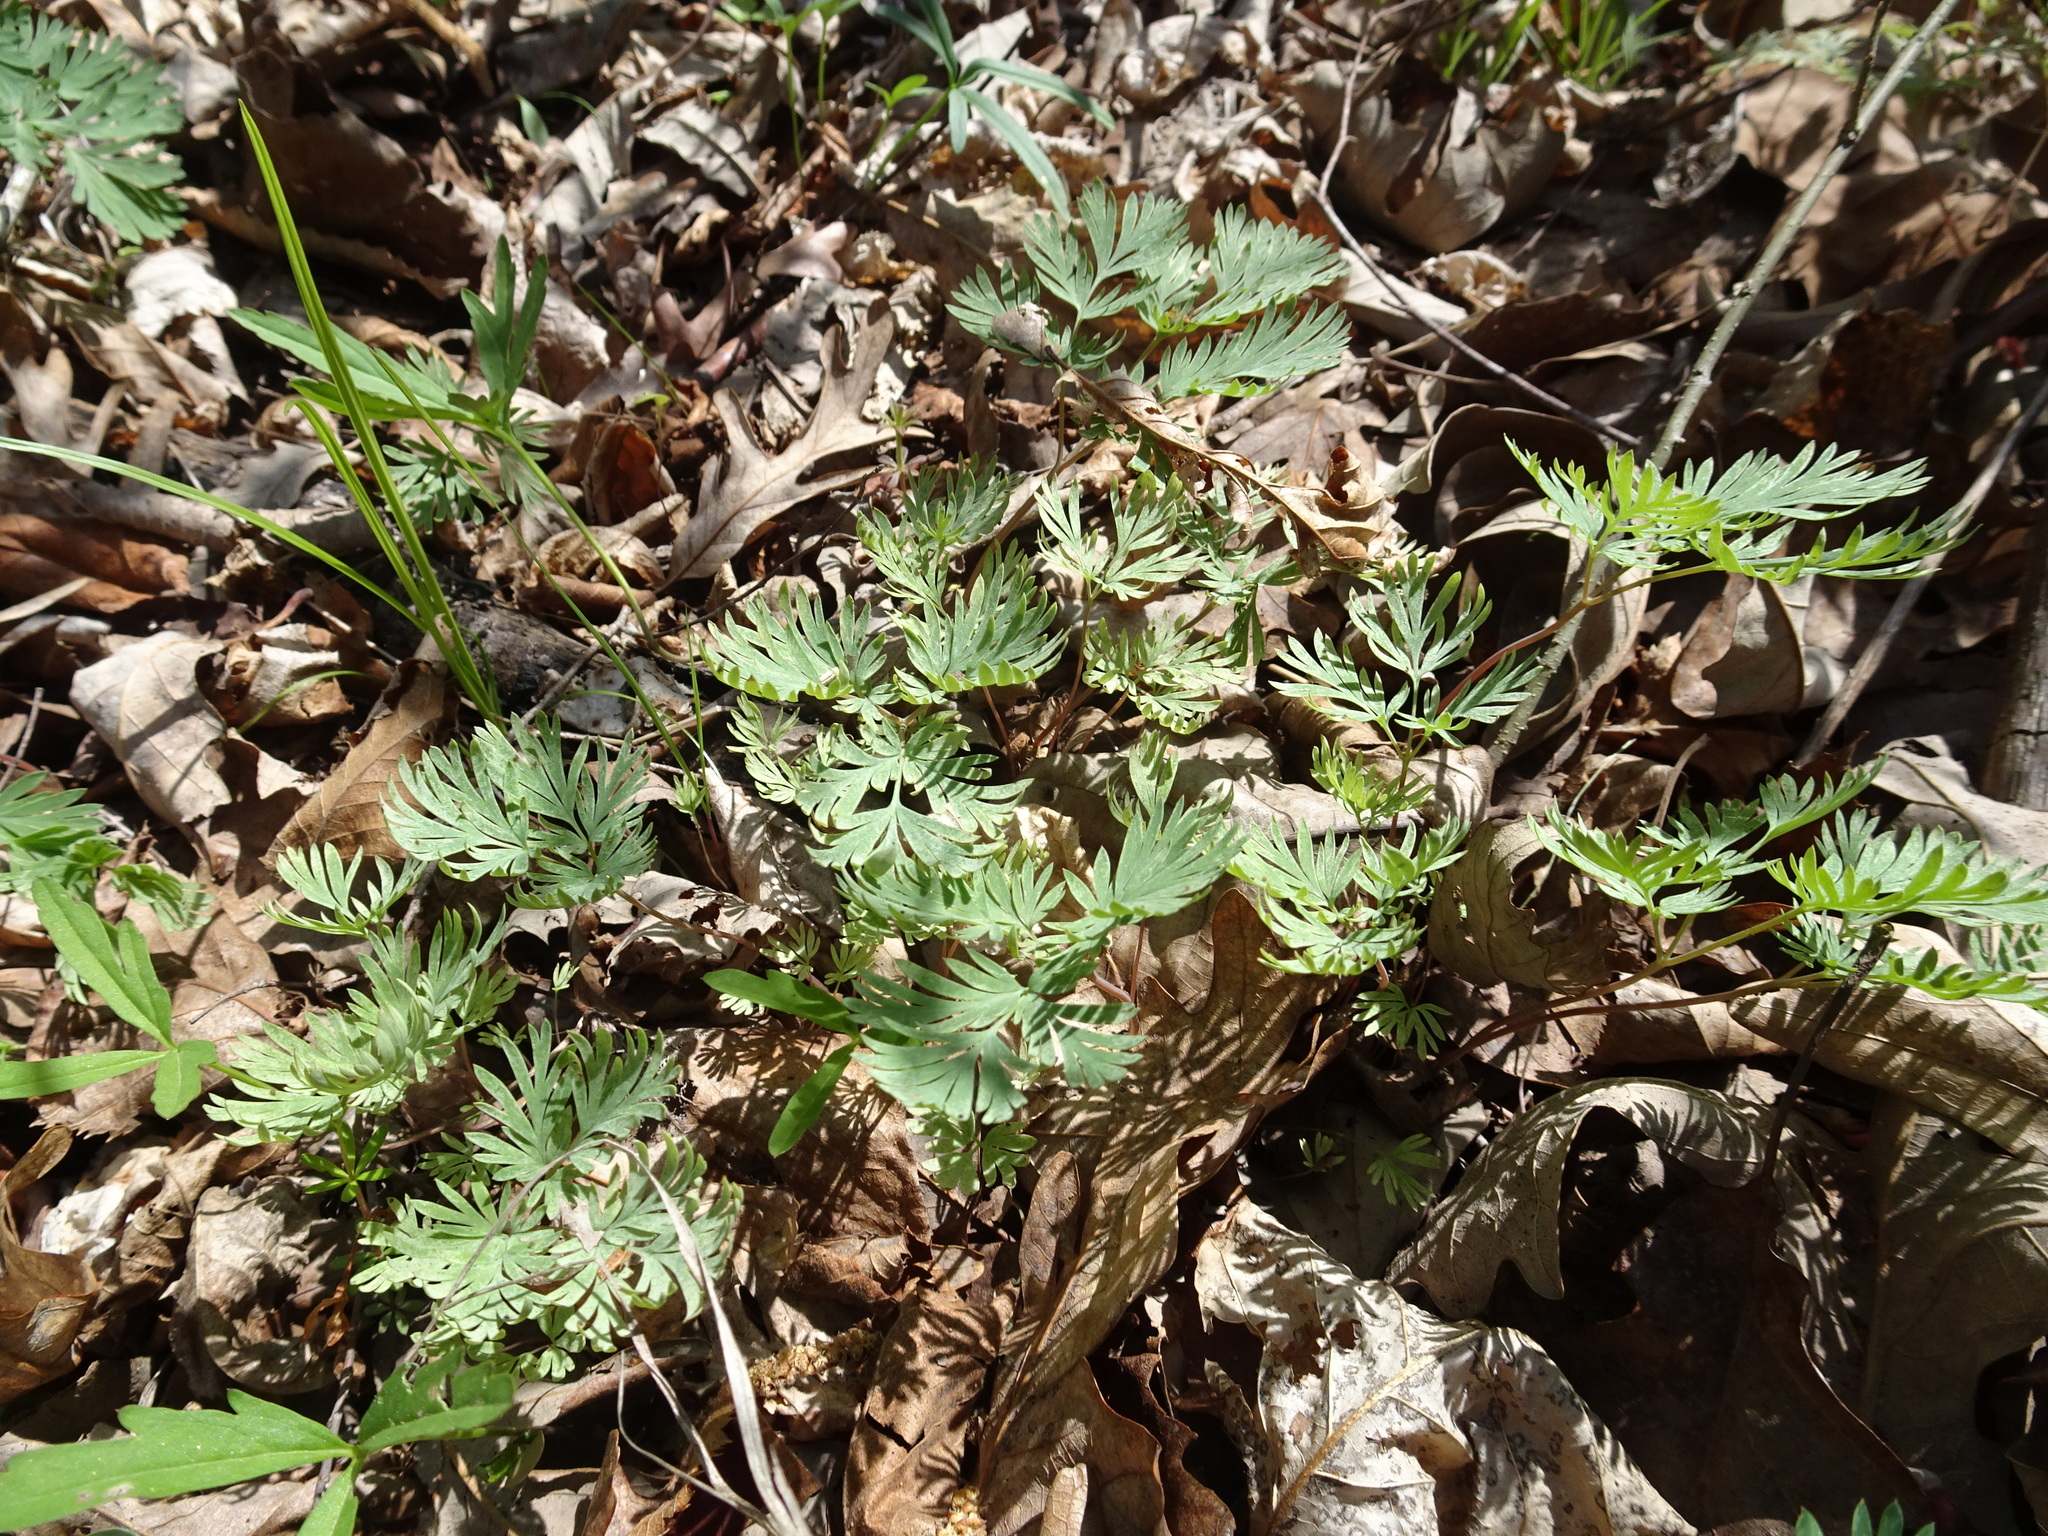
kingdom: Plantae
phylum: Tracheophyta
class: Magnoliopsida
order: Ranunculales
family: Papaveraceae
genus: Dicentra
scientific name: Dicentra cucullaria
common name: Dutchman's breeches
